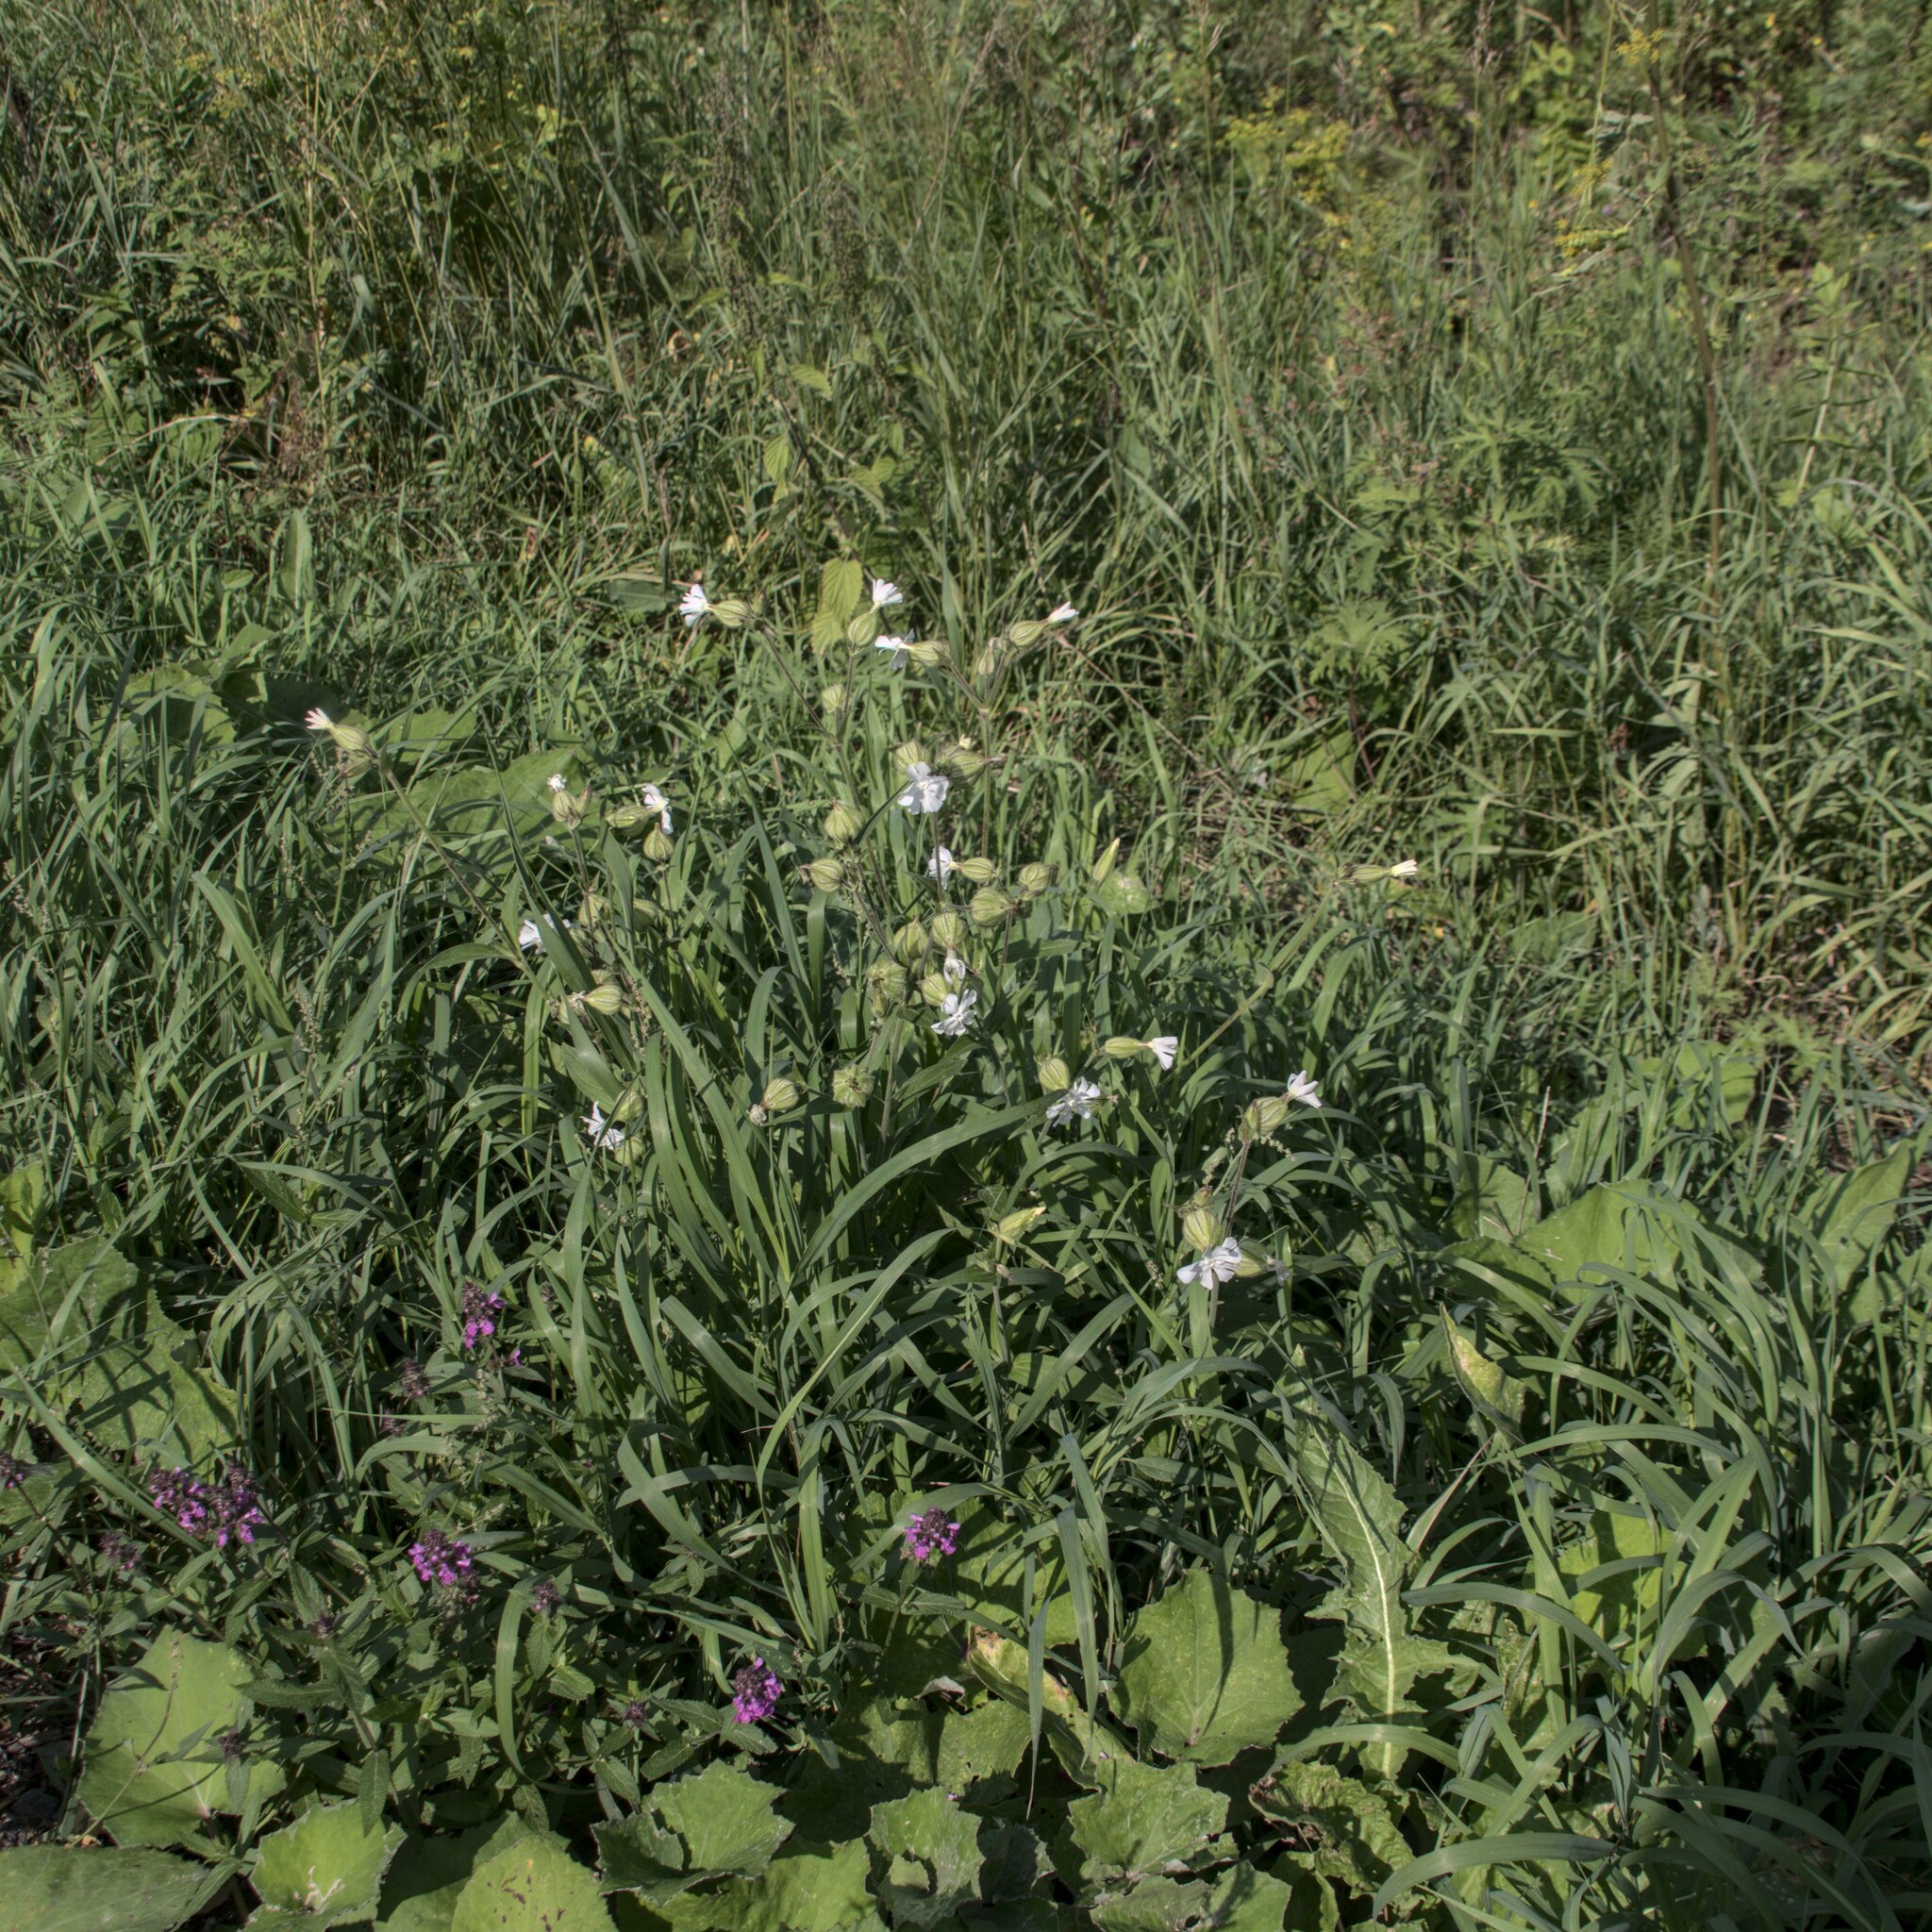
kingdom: Plantae
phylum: Tracheophyta
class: Magnoliopsida
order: Caryophyllales
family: Caryophyllaceae
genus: Silene
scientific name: Silene latifolia
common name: White campion
